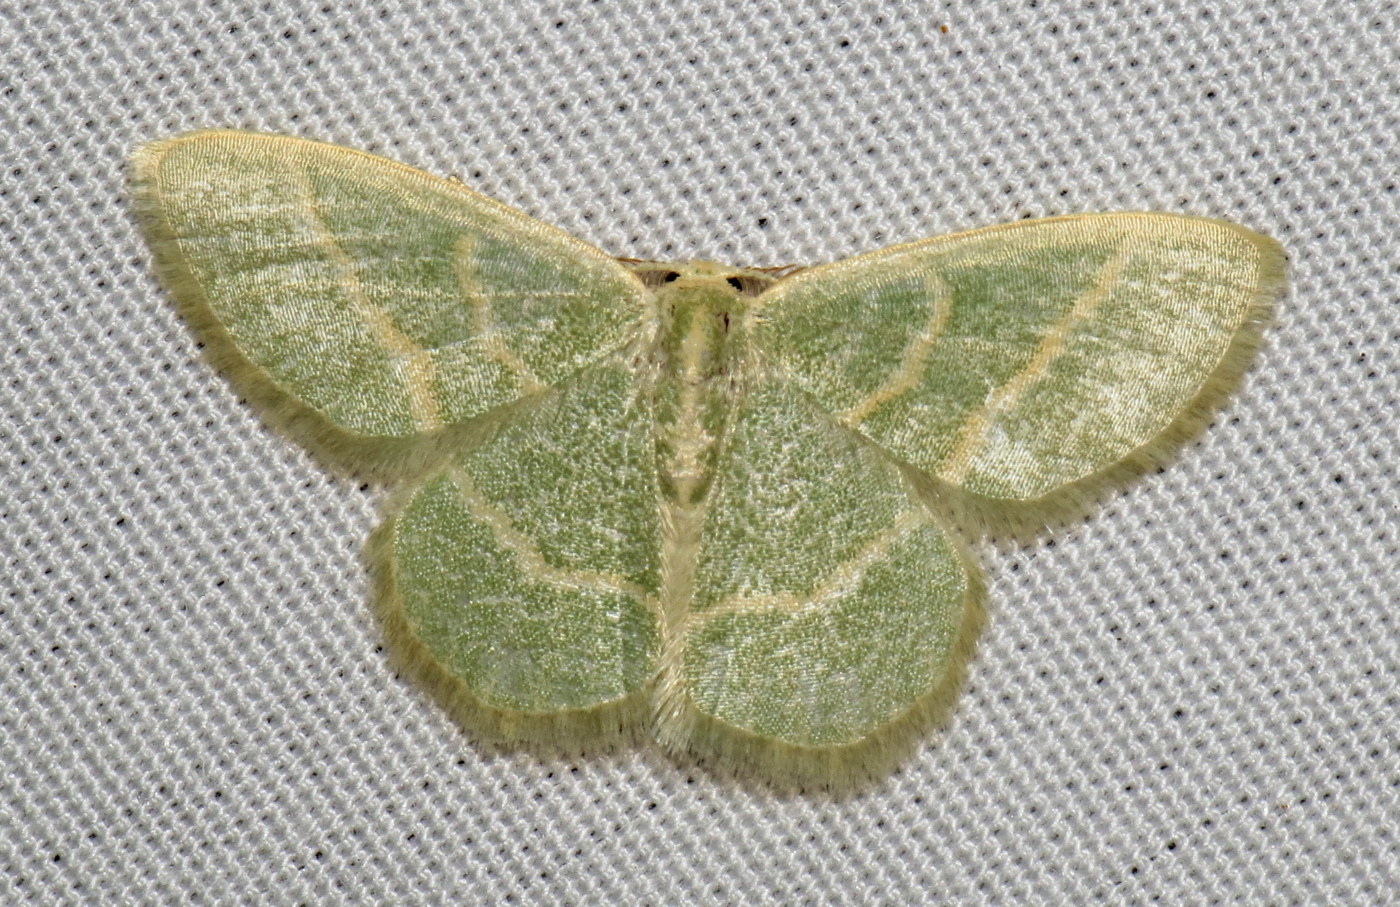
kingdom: Animalia
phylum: Arthropoda
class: Insecta
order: Lepidoptera
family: Geometridae
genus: Chlorochlamys
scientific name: Chlorochlamys chloroleucaria
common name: Blackberry looper
